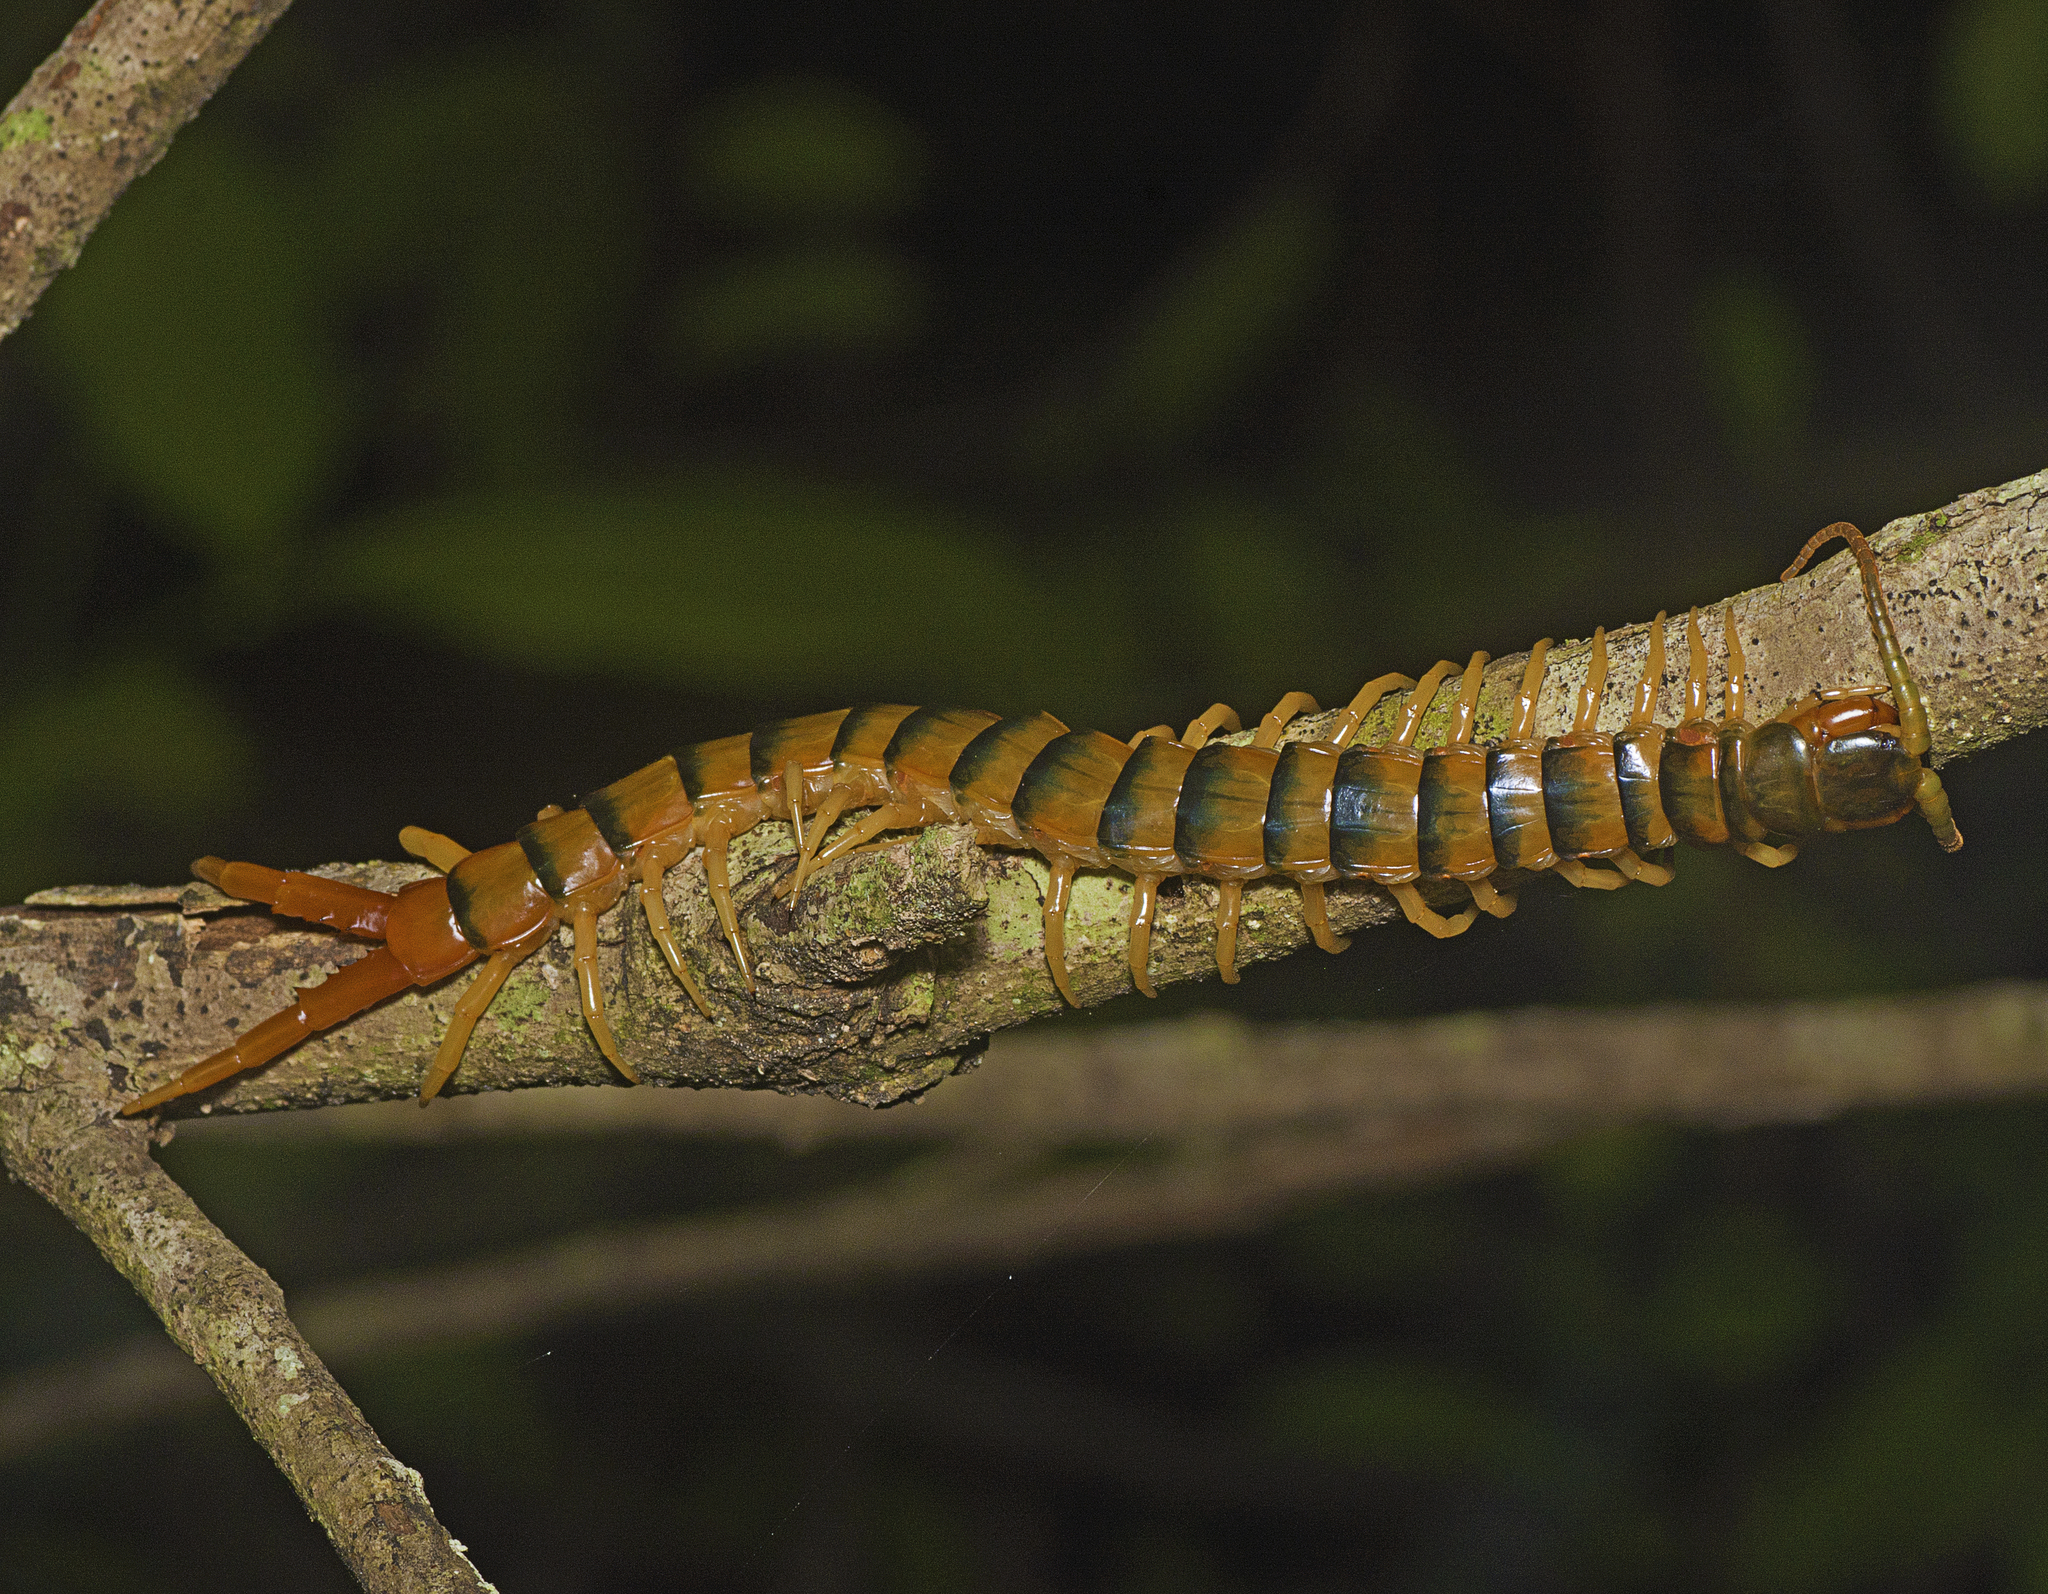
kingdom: Animalia
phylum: Arthropoda
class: Chilopoda
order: Scolopendromorpha
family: Scolopendridae
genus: Ethmostigmus
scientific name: Ethmostigmus rubripes
